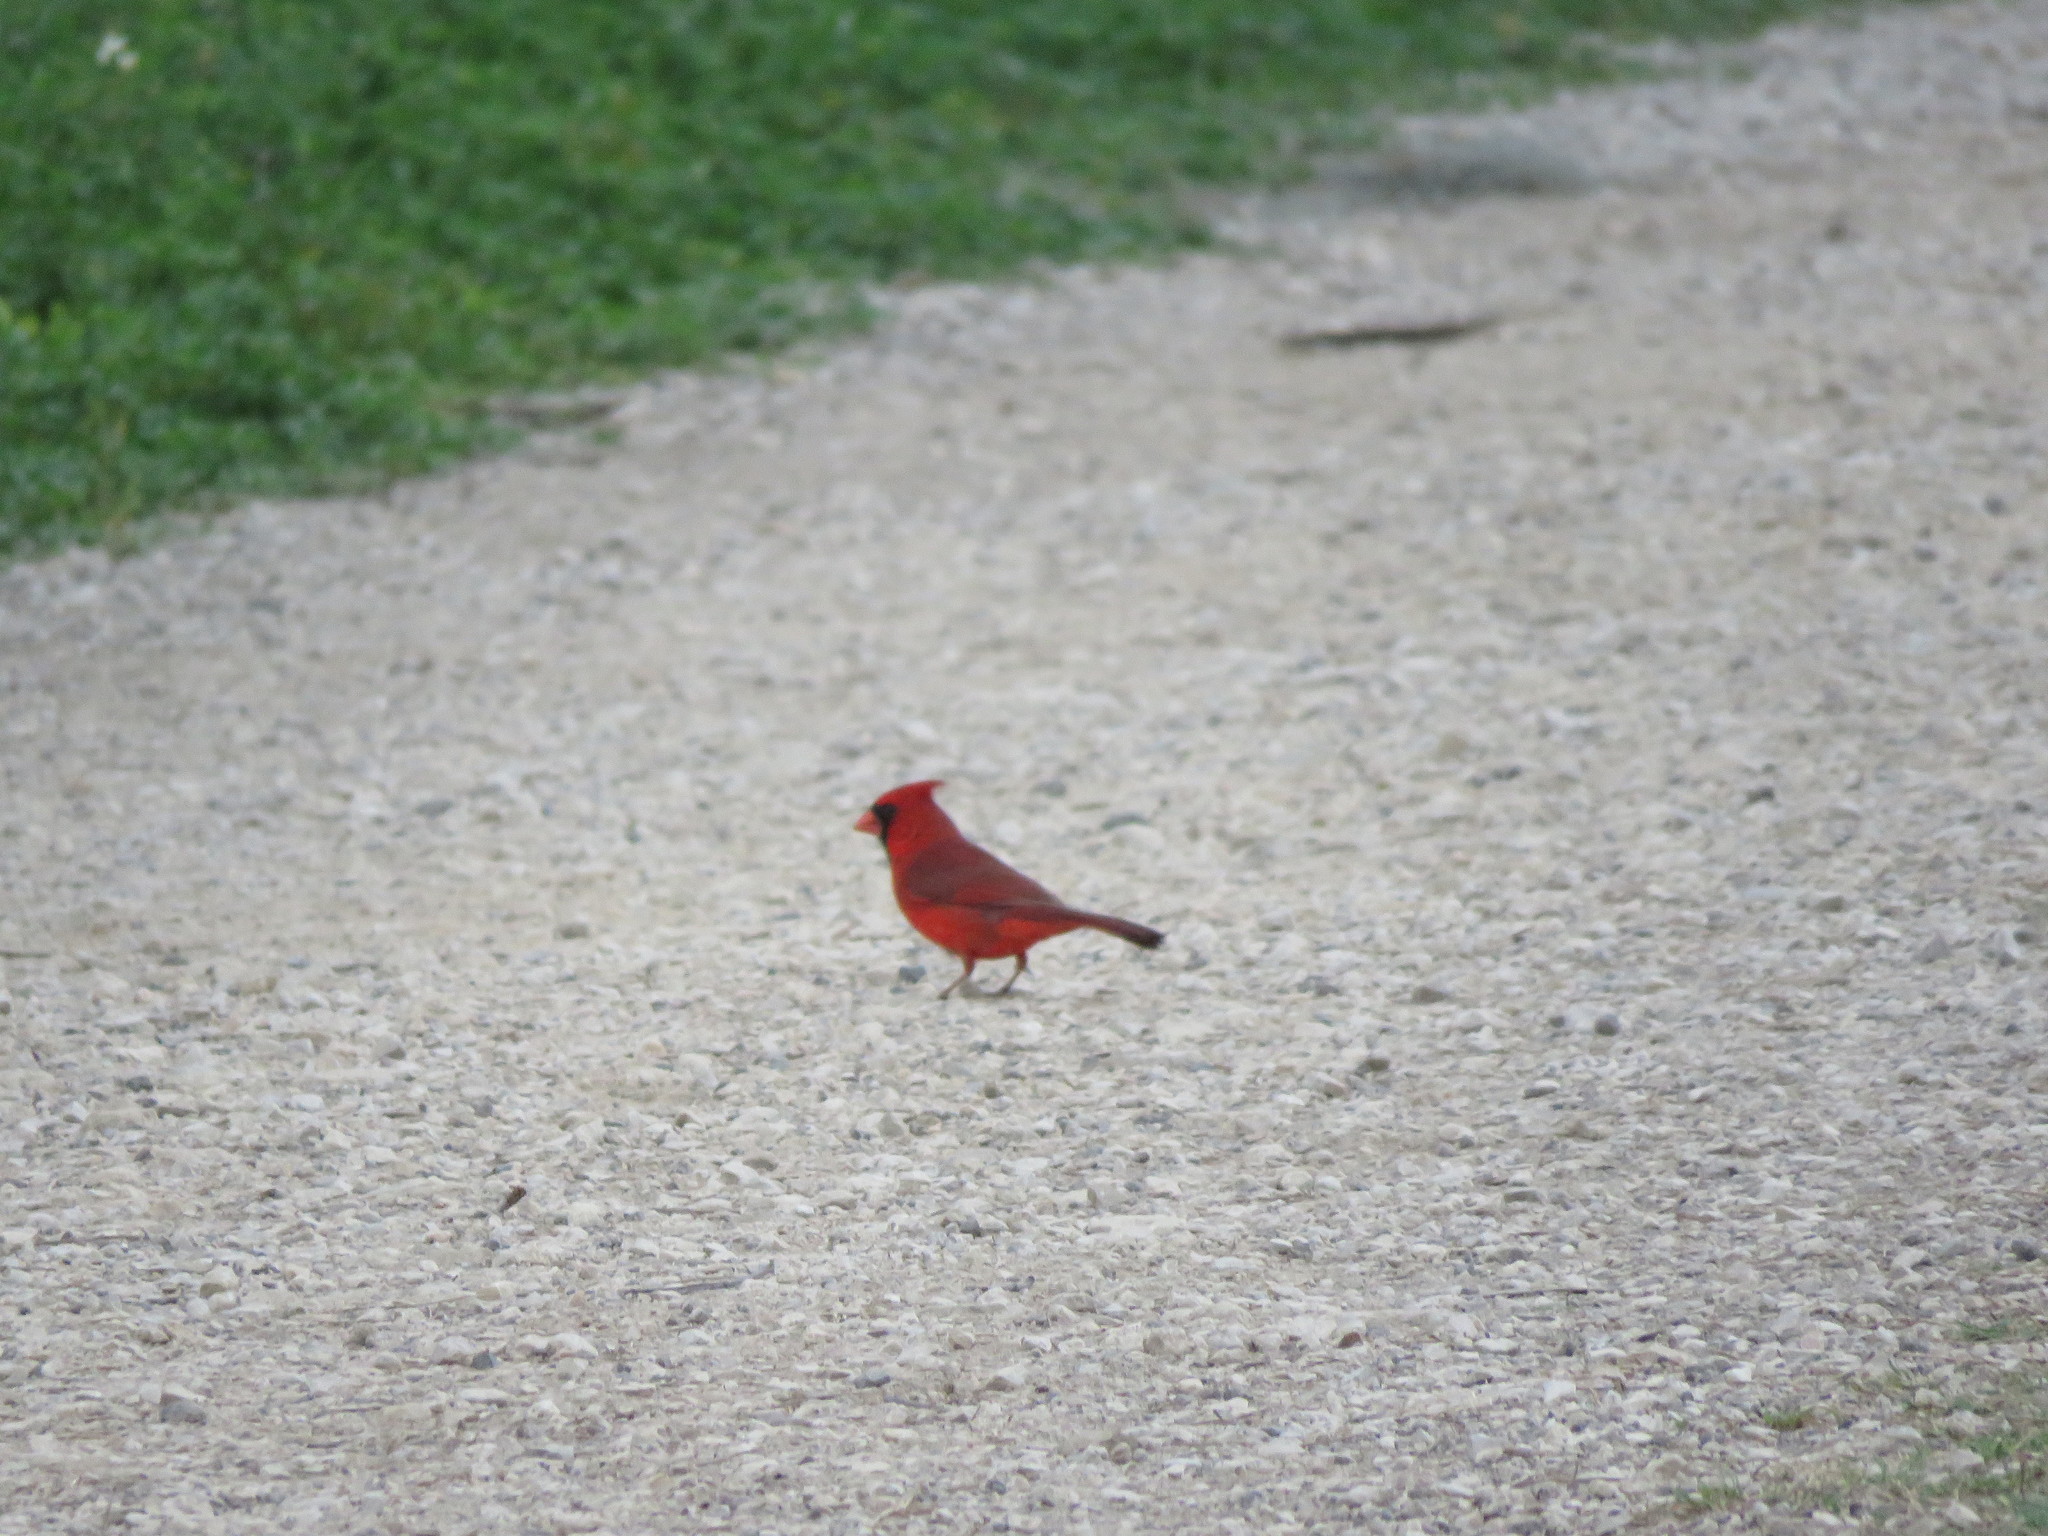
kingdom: Animalia
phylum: Chordata
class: Aves
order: Passeriformes
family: Cardinalidae
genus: Cardinalis
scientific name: Cardinalis cardinalis
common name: Northern cardinal
